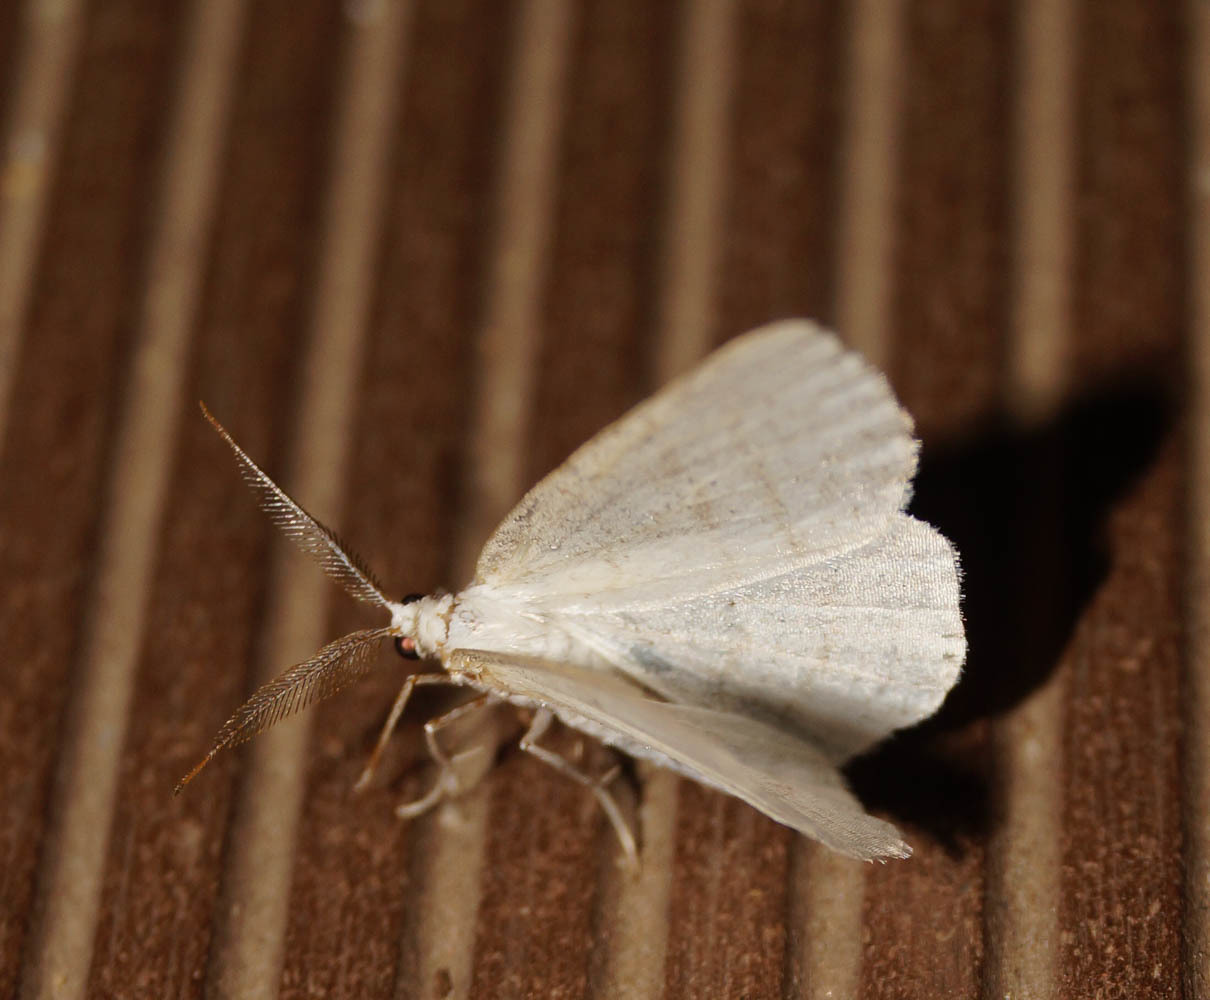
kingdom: Animalia
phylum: Arthropoda
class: Insecta
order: Lepidoptera
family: Geometridae
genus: Cabera
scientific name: Cabera exanthemata
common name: Common wave
